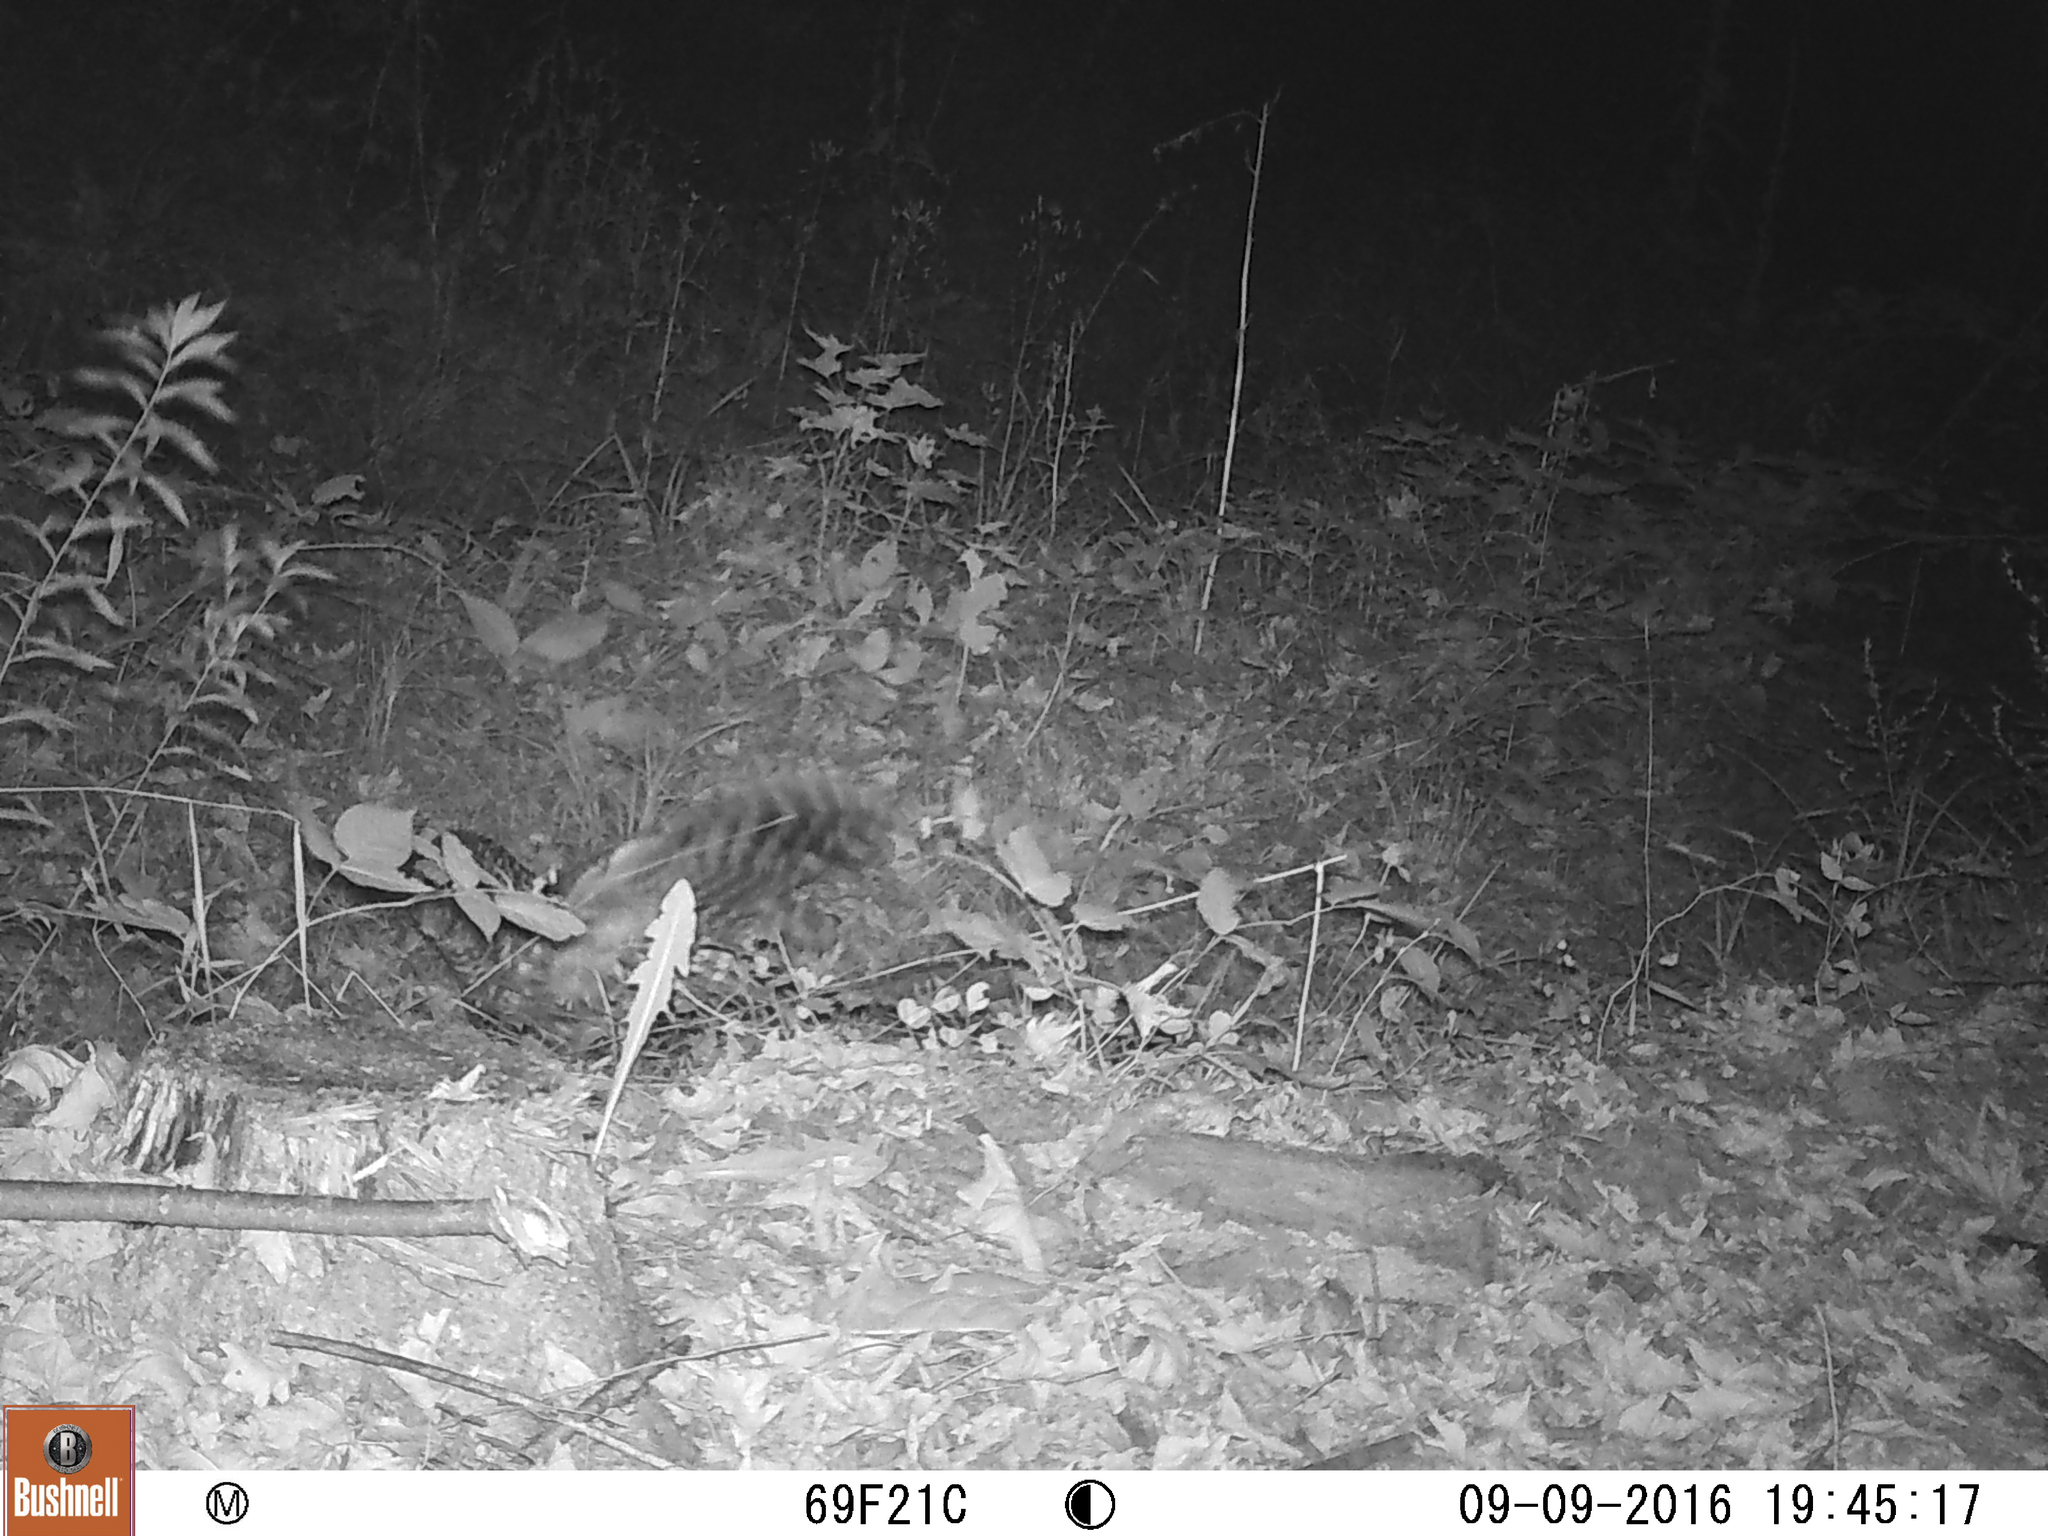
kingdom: Animalia
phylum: Chordata
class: Aves
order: Strigiformes
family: Strigidae
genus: Strix
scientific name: Strix varia
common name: Barred owl
